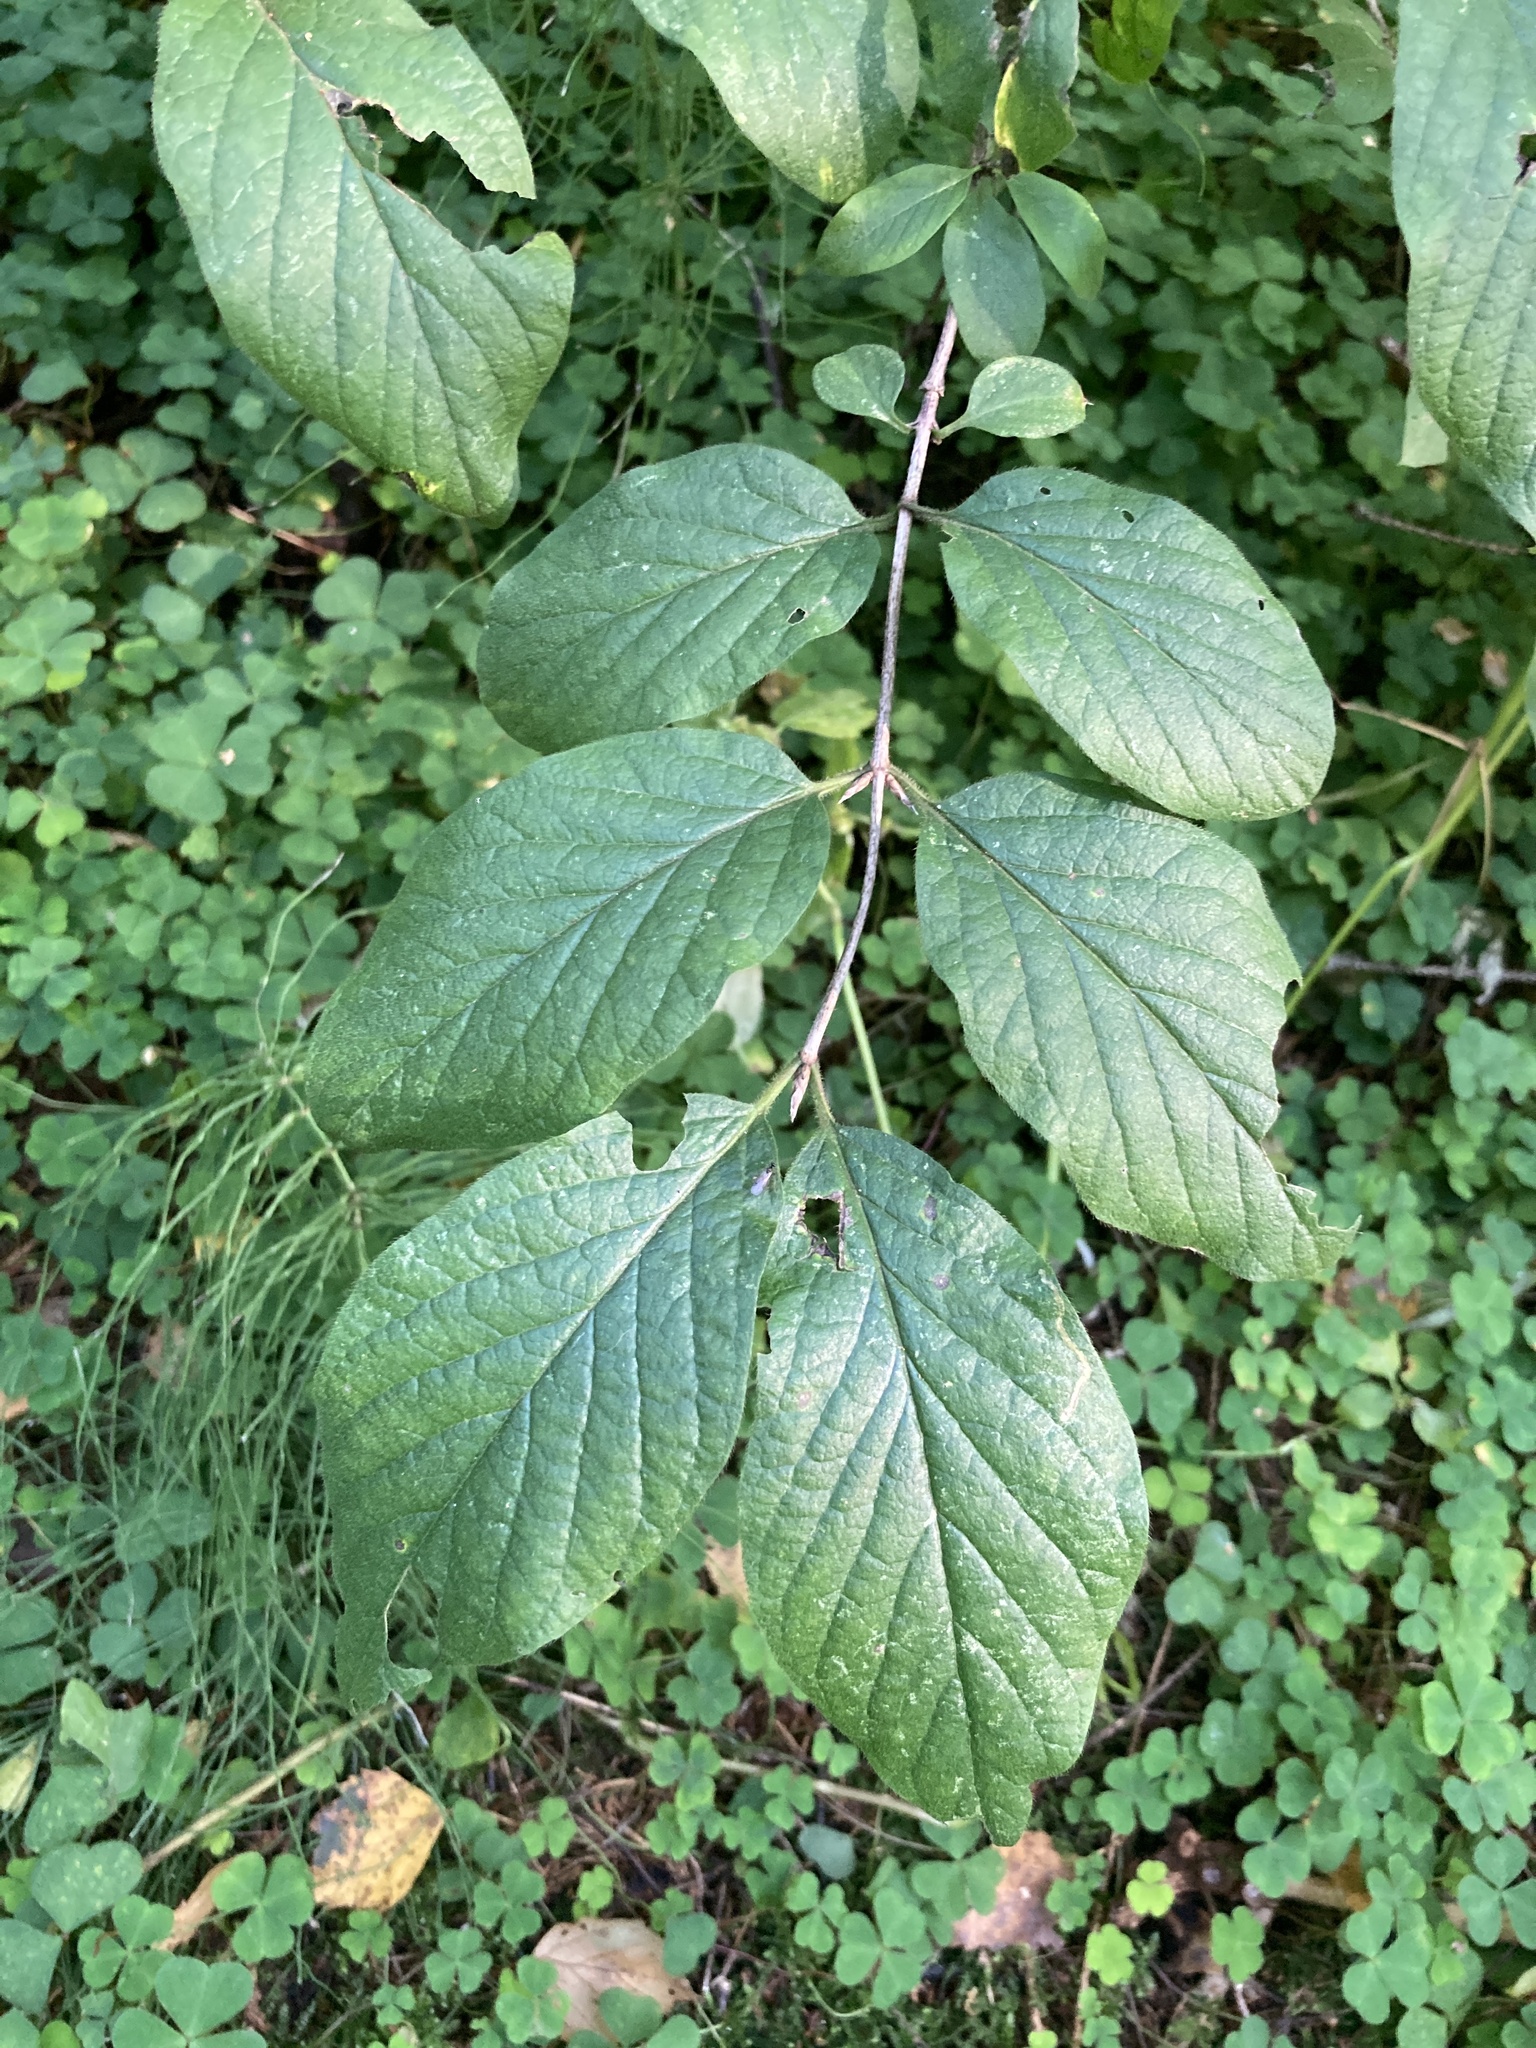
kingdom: Plantae
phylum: Tracheophyta
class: Magnoliopsida
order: Dipsacales
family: Caprifoliaceae
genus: Lonicera
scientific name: Lonicera xylosteum
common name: Fly honeysuckle
